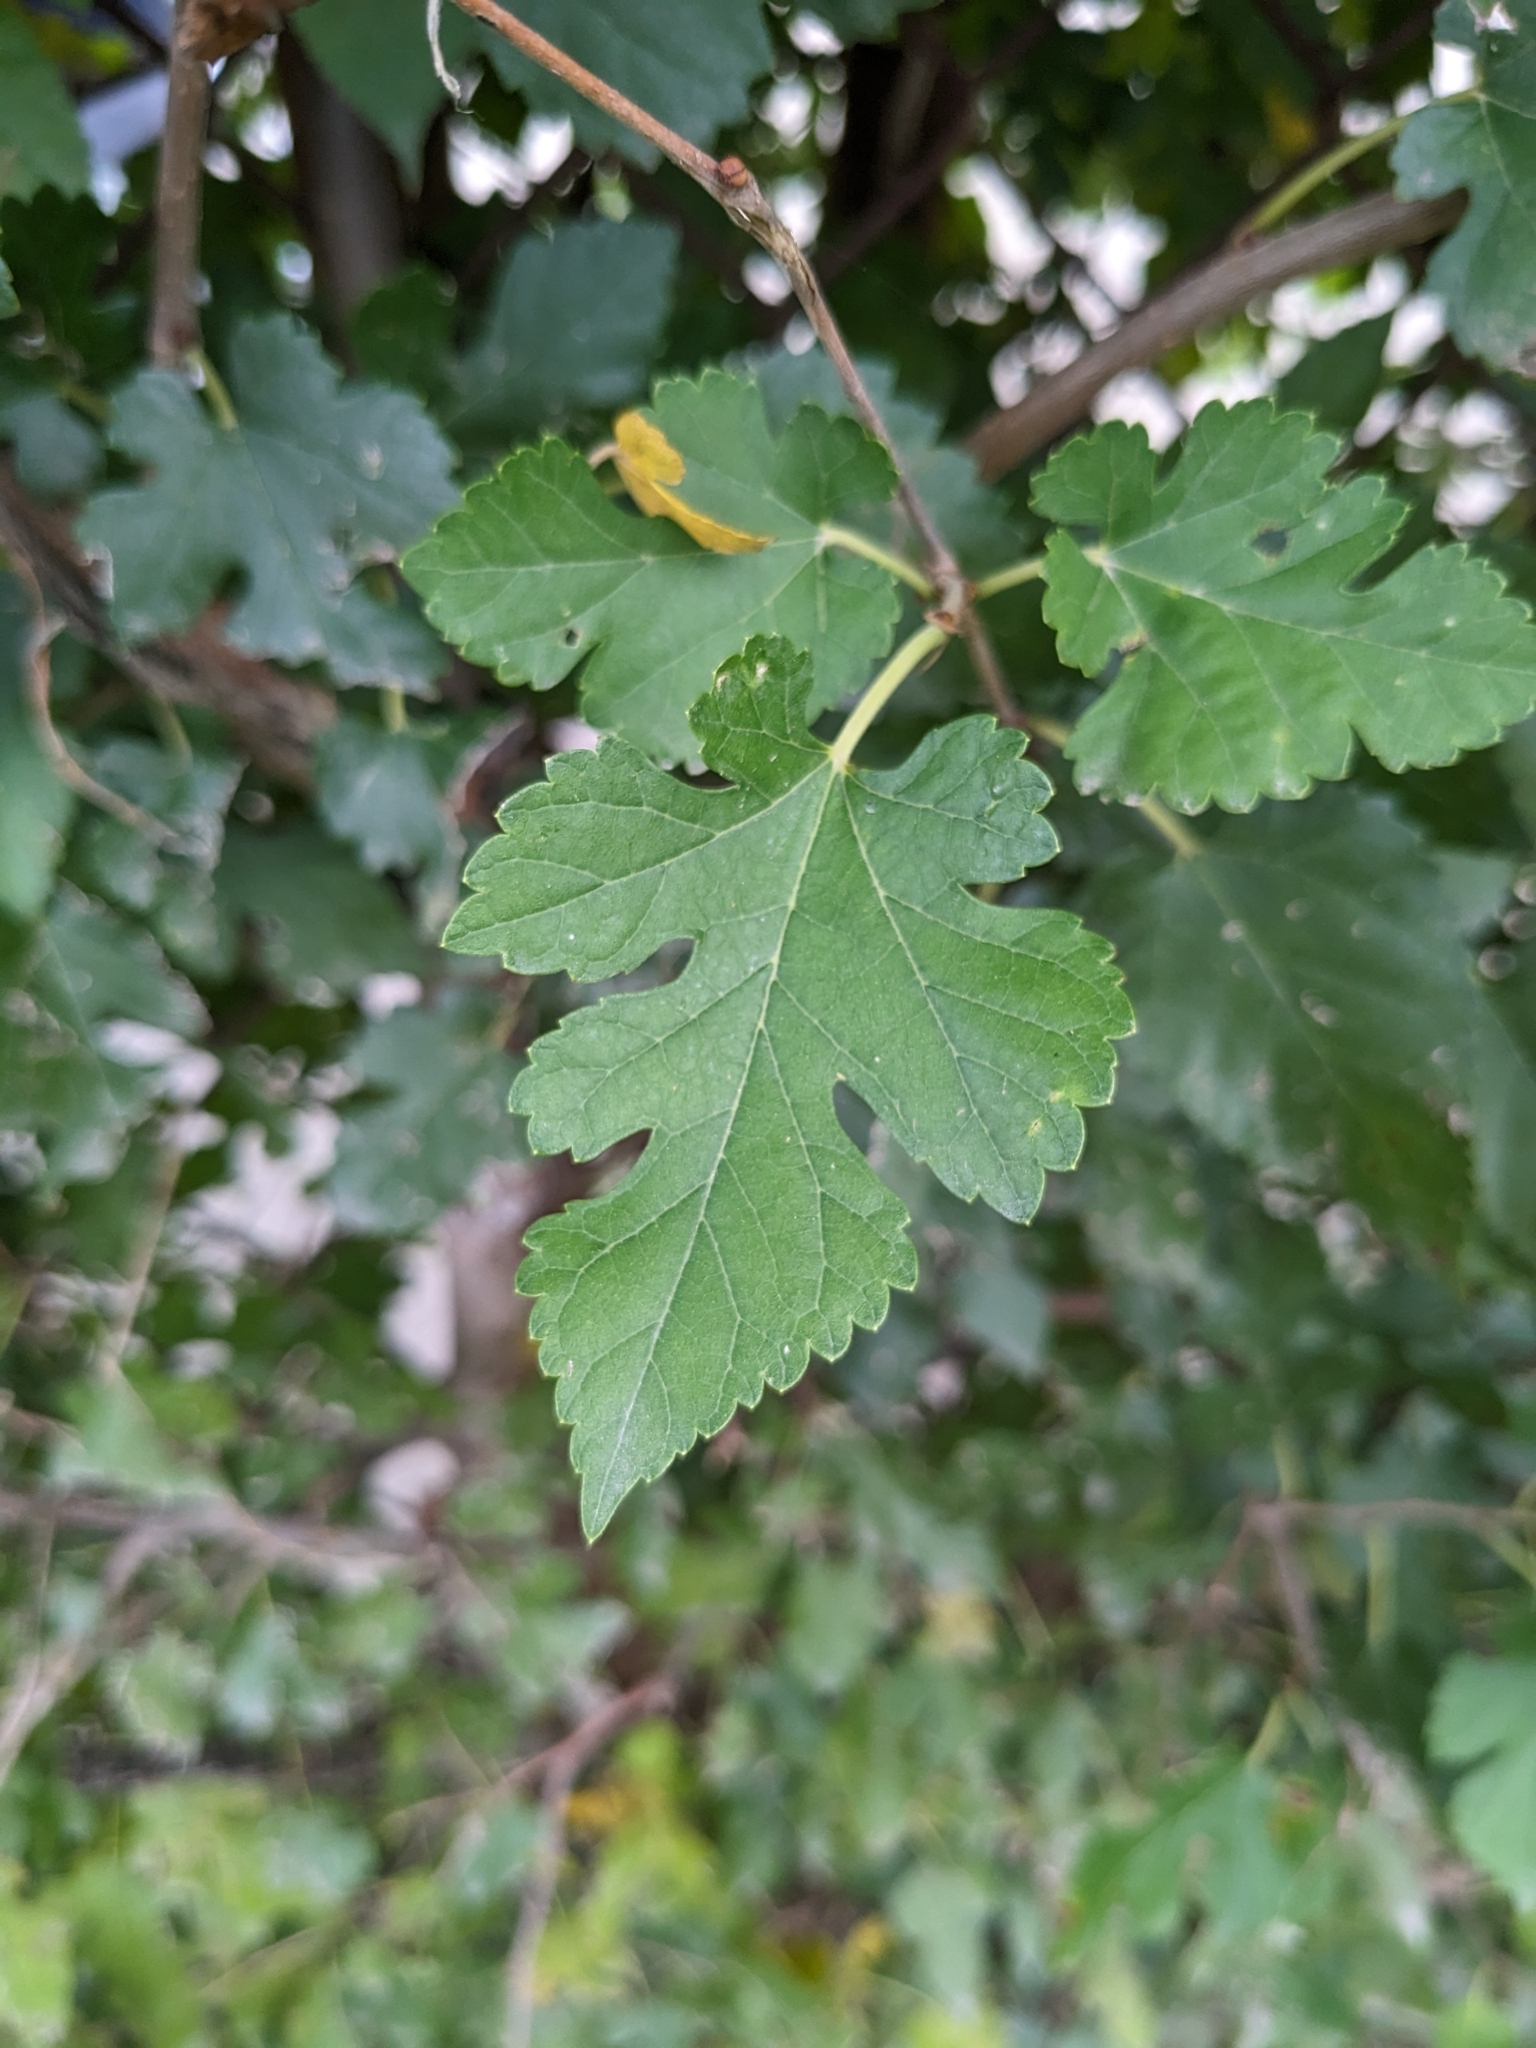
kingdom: Plantae
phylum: Tracheophyta
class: Magnoliopsida
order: Rosales
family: Moraceae
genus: Morus
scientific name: Morus alba
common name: White mulberry
